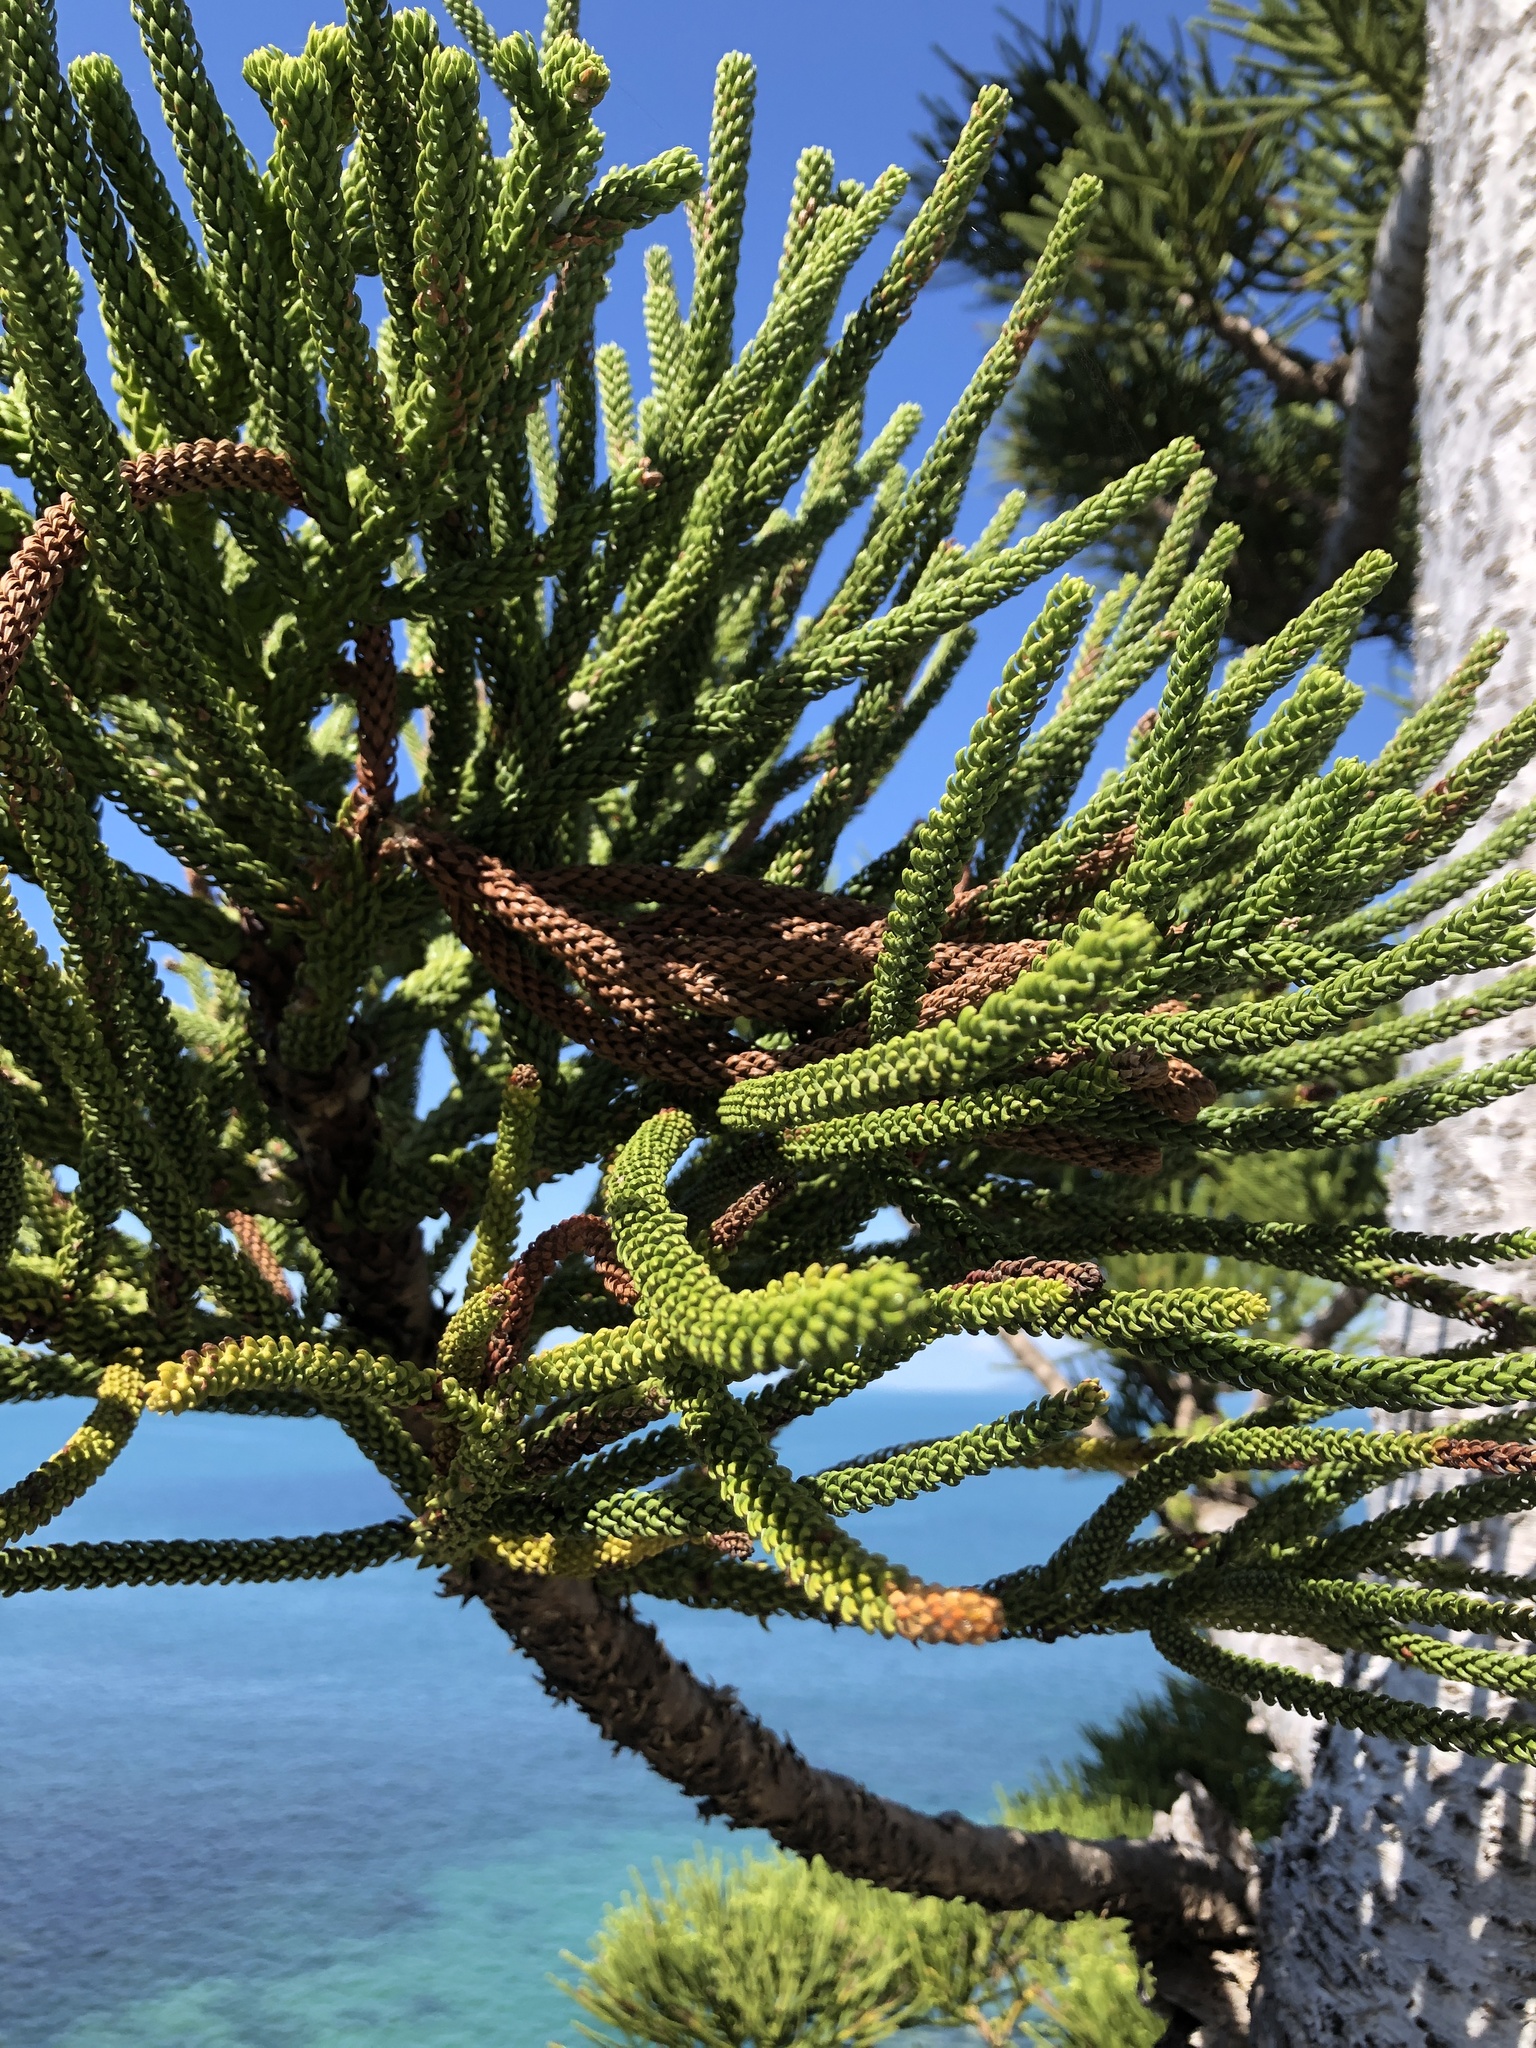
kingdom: Plantae
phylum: Tracheophyta
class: Pinopsida
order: Pinales
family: Araucariaceae
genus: Araucaria
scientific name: Araucaria cunninghamii
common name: Colonial pine
